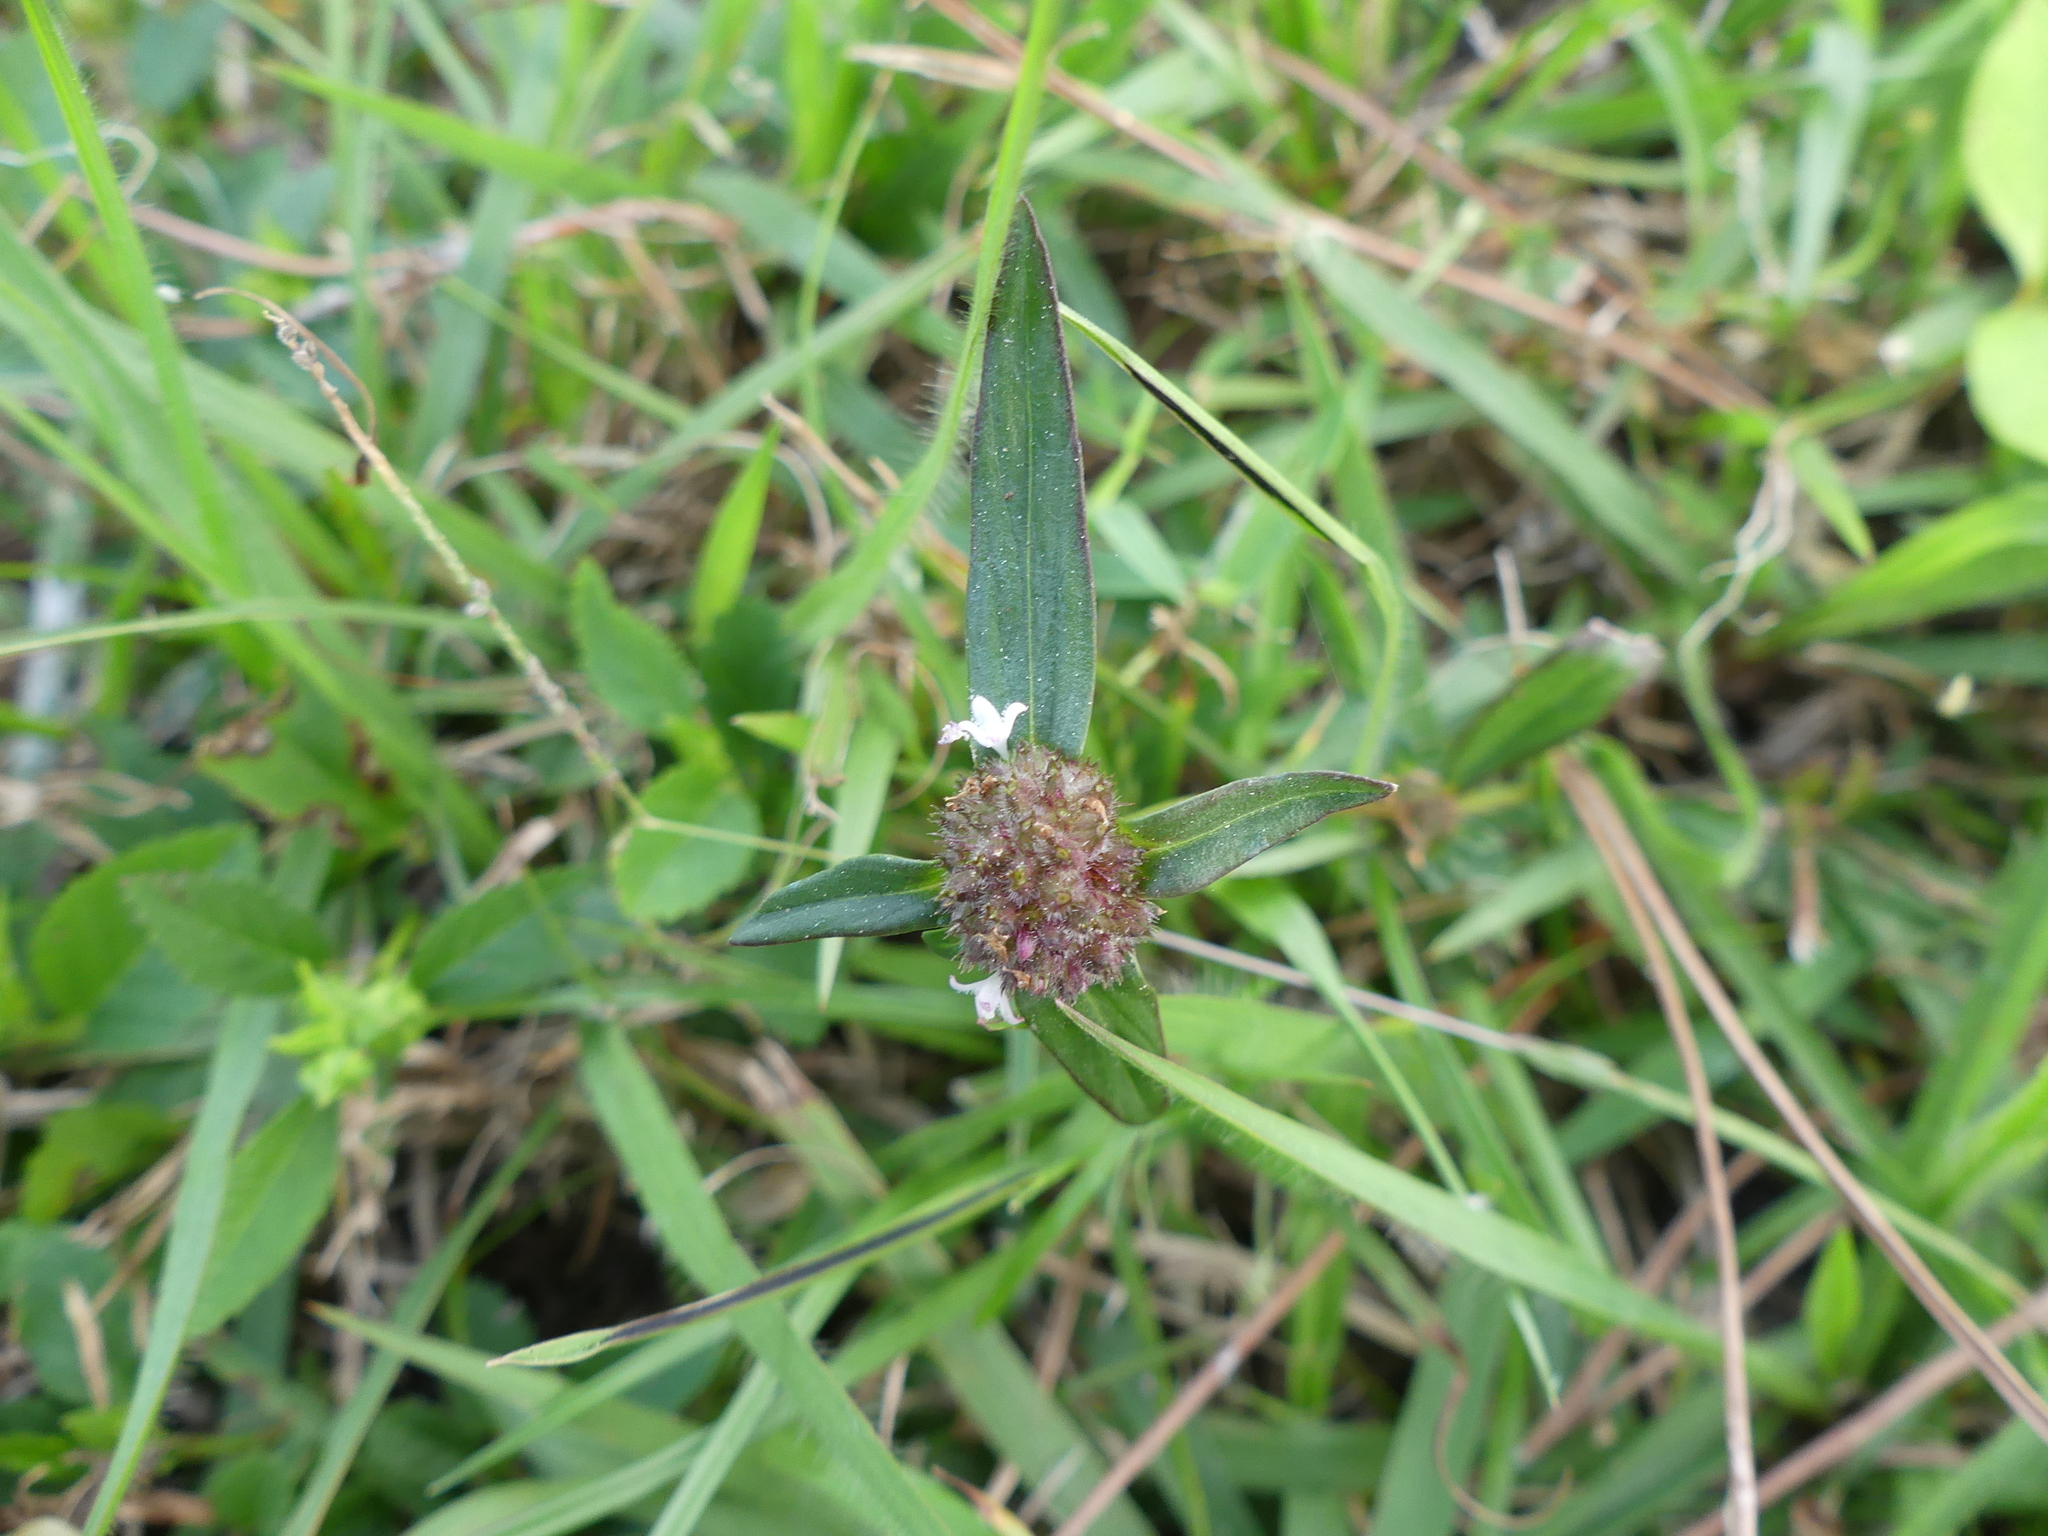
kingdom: Plantae
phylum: Tracheophyta
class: Magnoliopsida
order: Gentianales
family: Rubiaceae
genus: Spermacoce
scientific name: Spermacoce verticillata
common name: Shrubby false buttonweed
